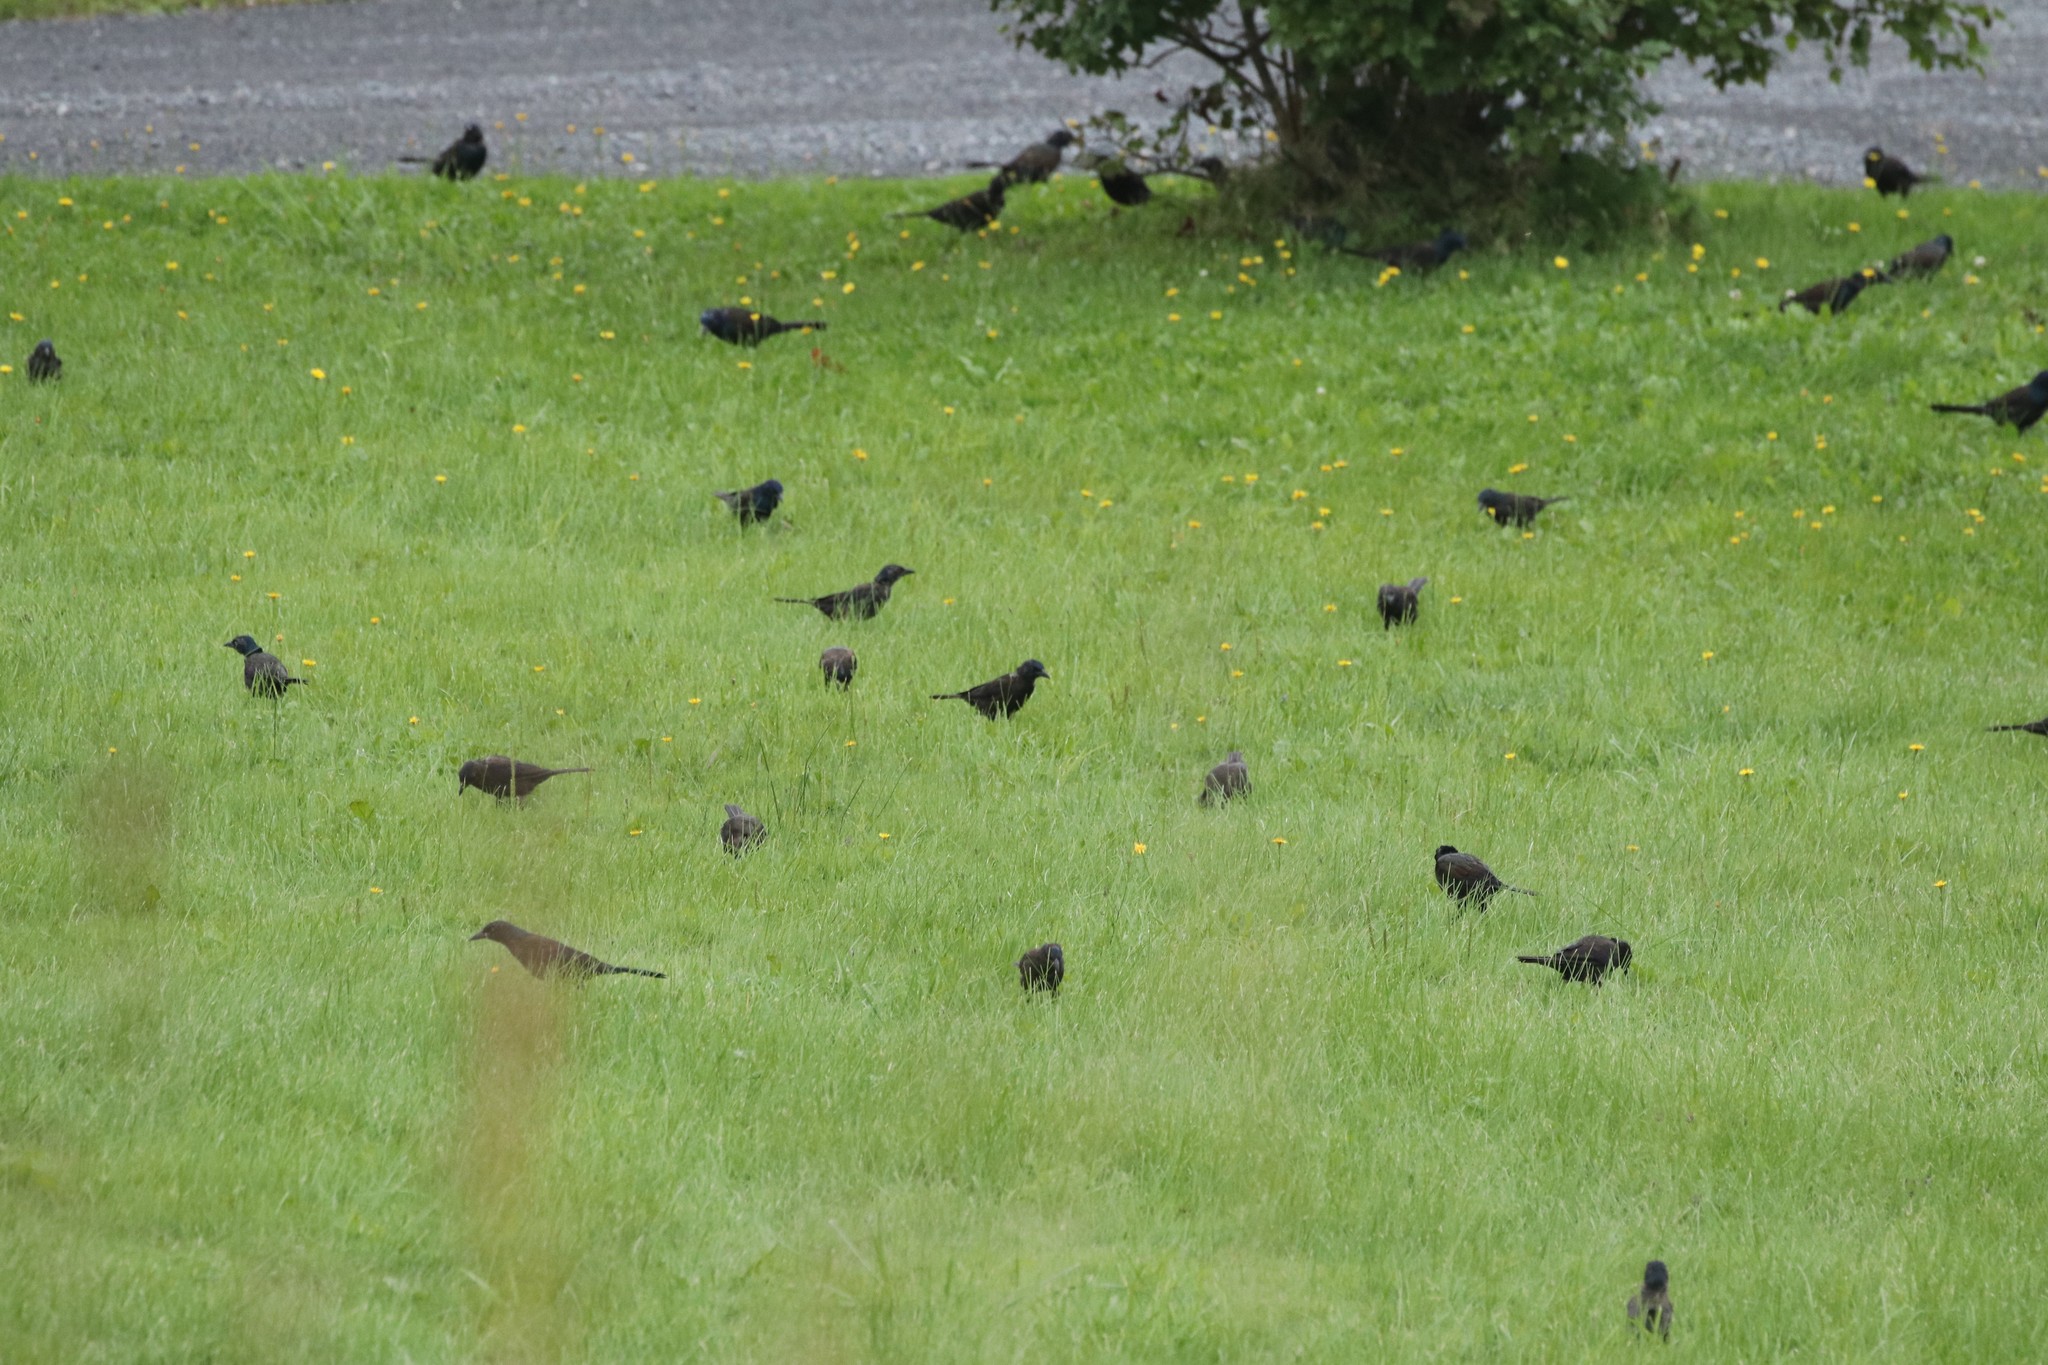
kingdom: Animalia
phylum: Chordata
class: Aves
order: Passeriformes
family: Icteridae
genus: Quiscalus
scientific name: Quiscalus quiscula
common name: Common grackle
